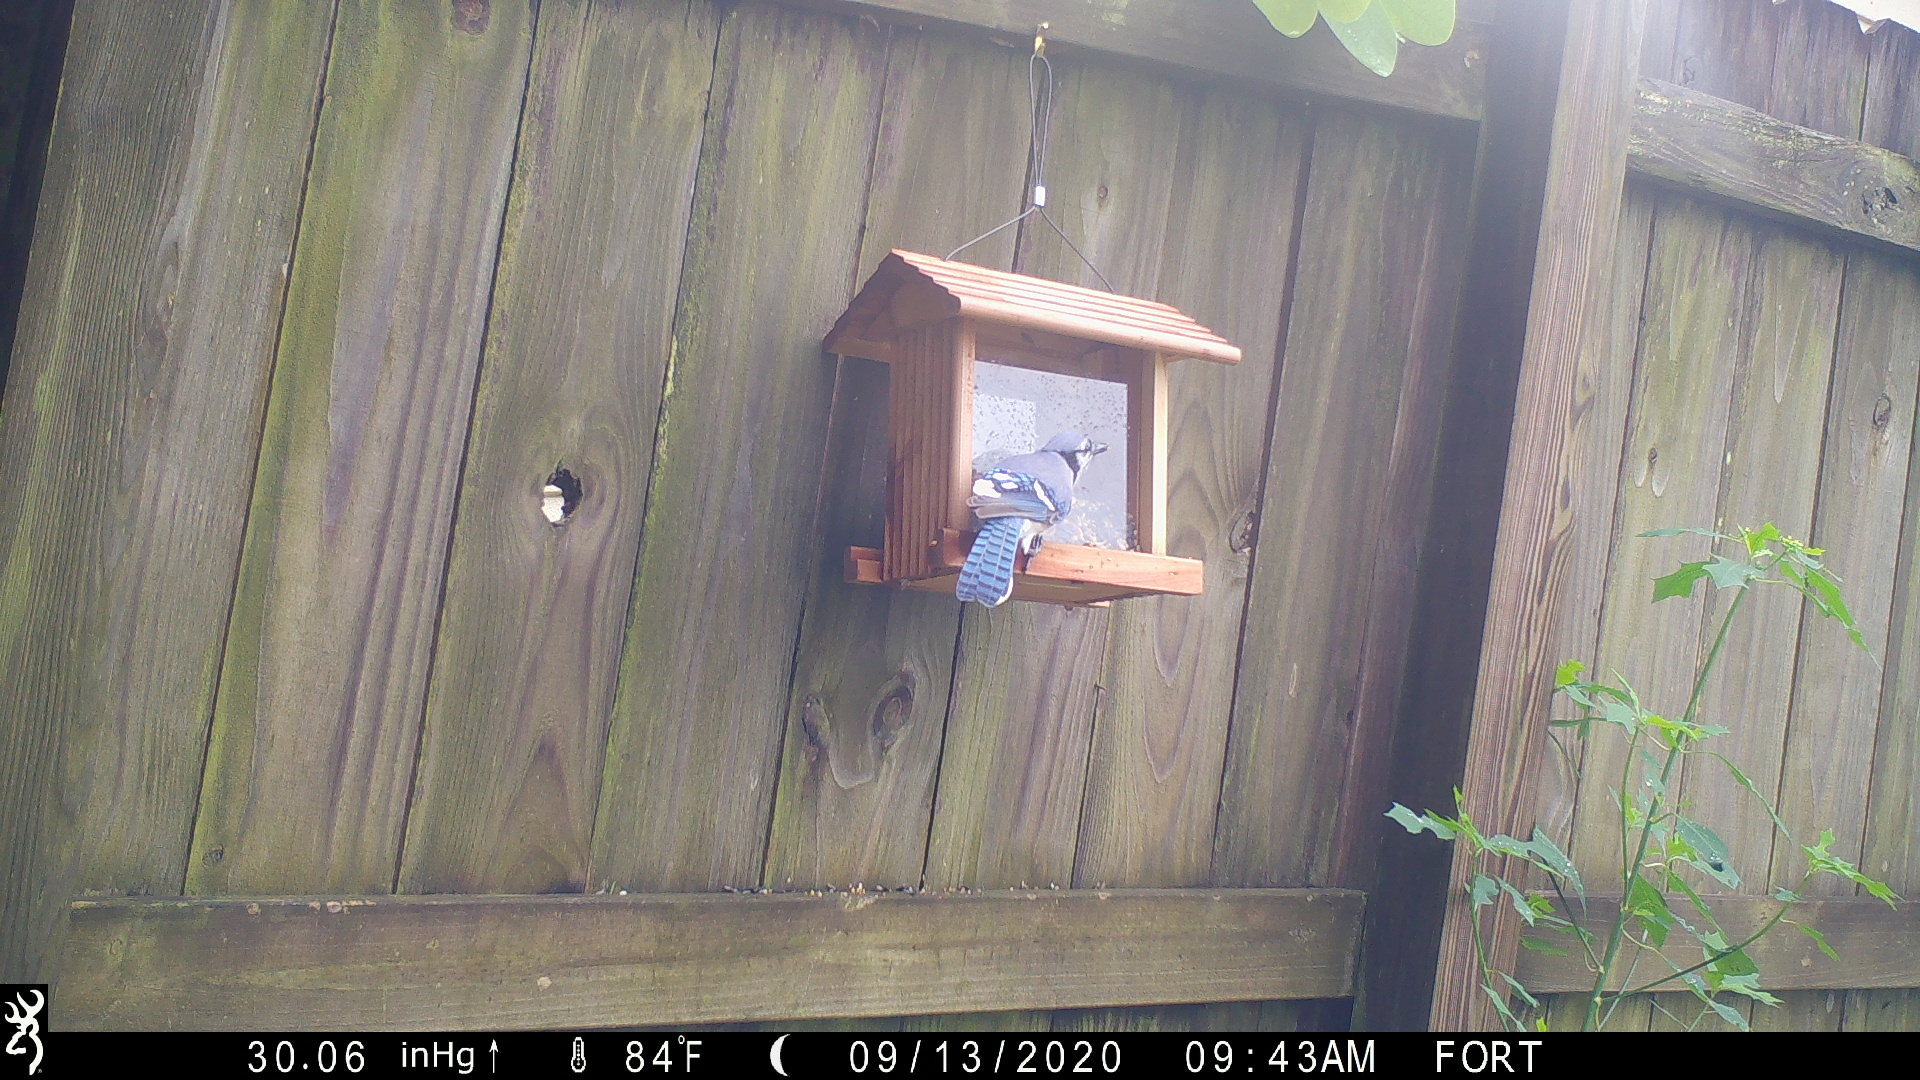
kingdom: Animalia
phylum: Chordata
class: Aves
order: Passeriformes
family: Corvidae
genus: Cyanocitta
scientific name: Cyanocitta cristata
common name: Blue jay
